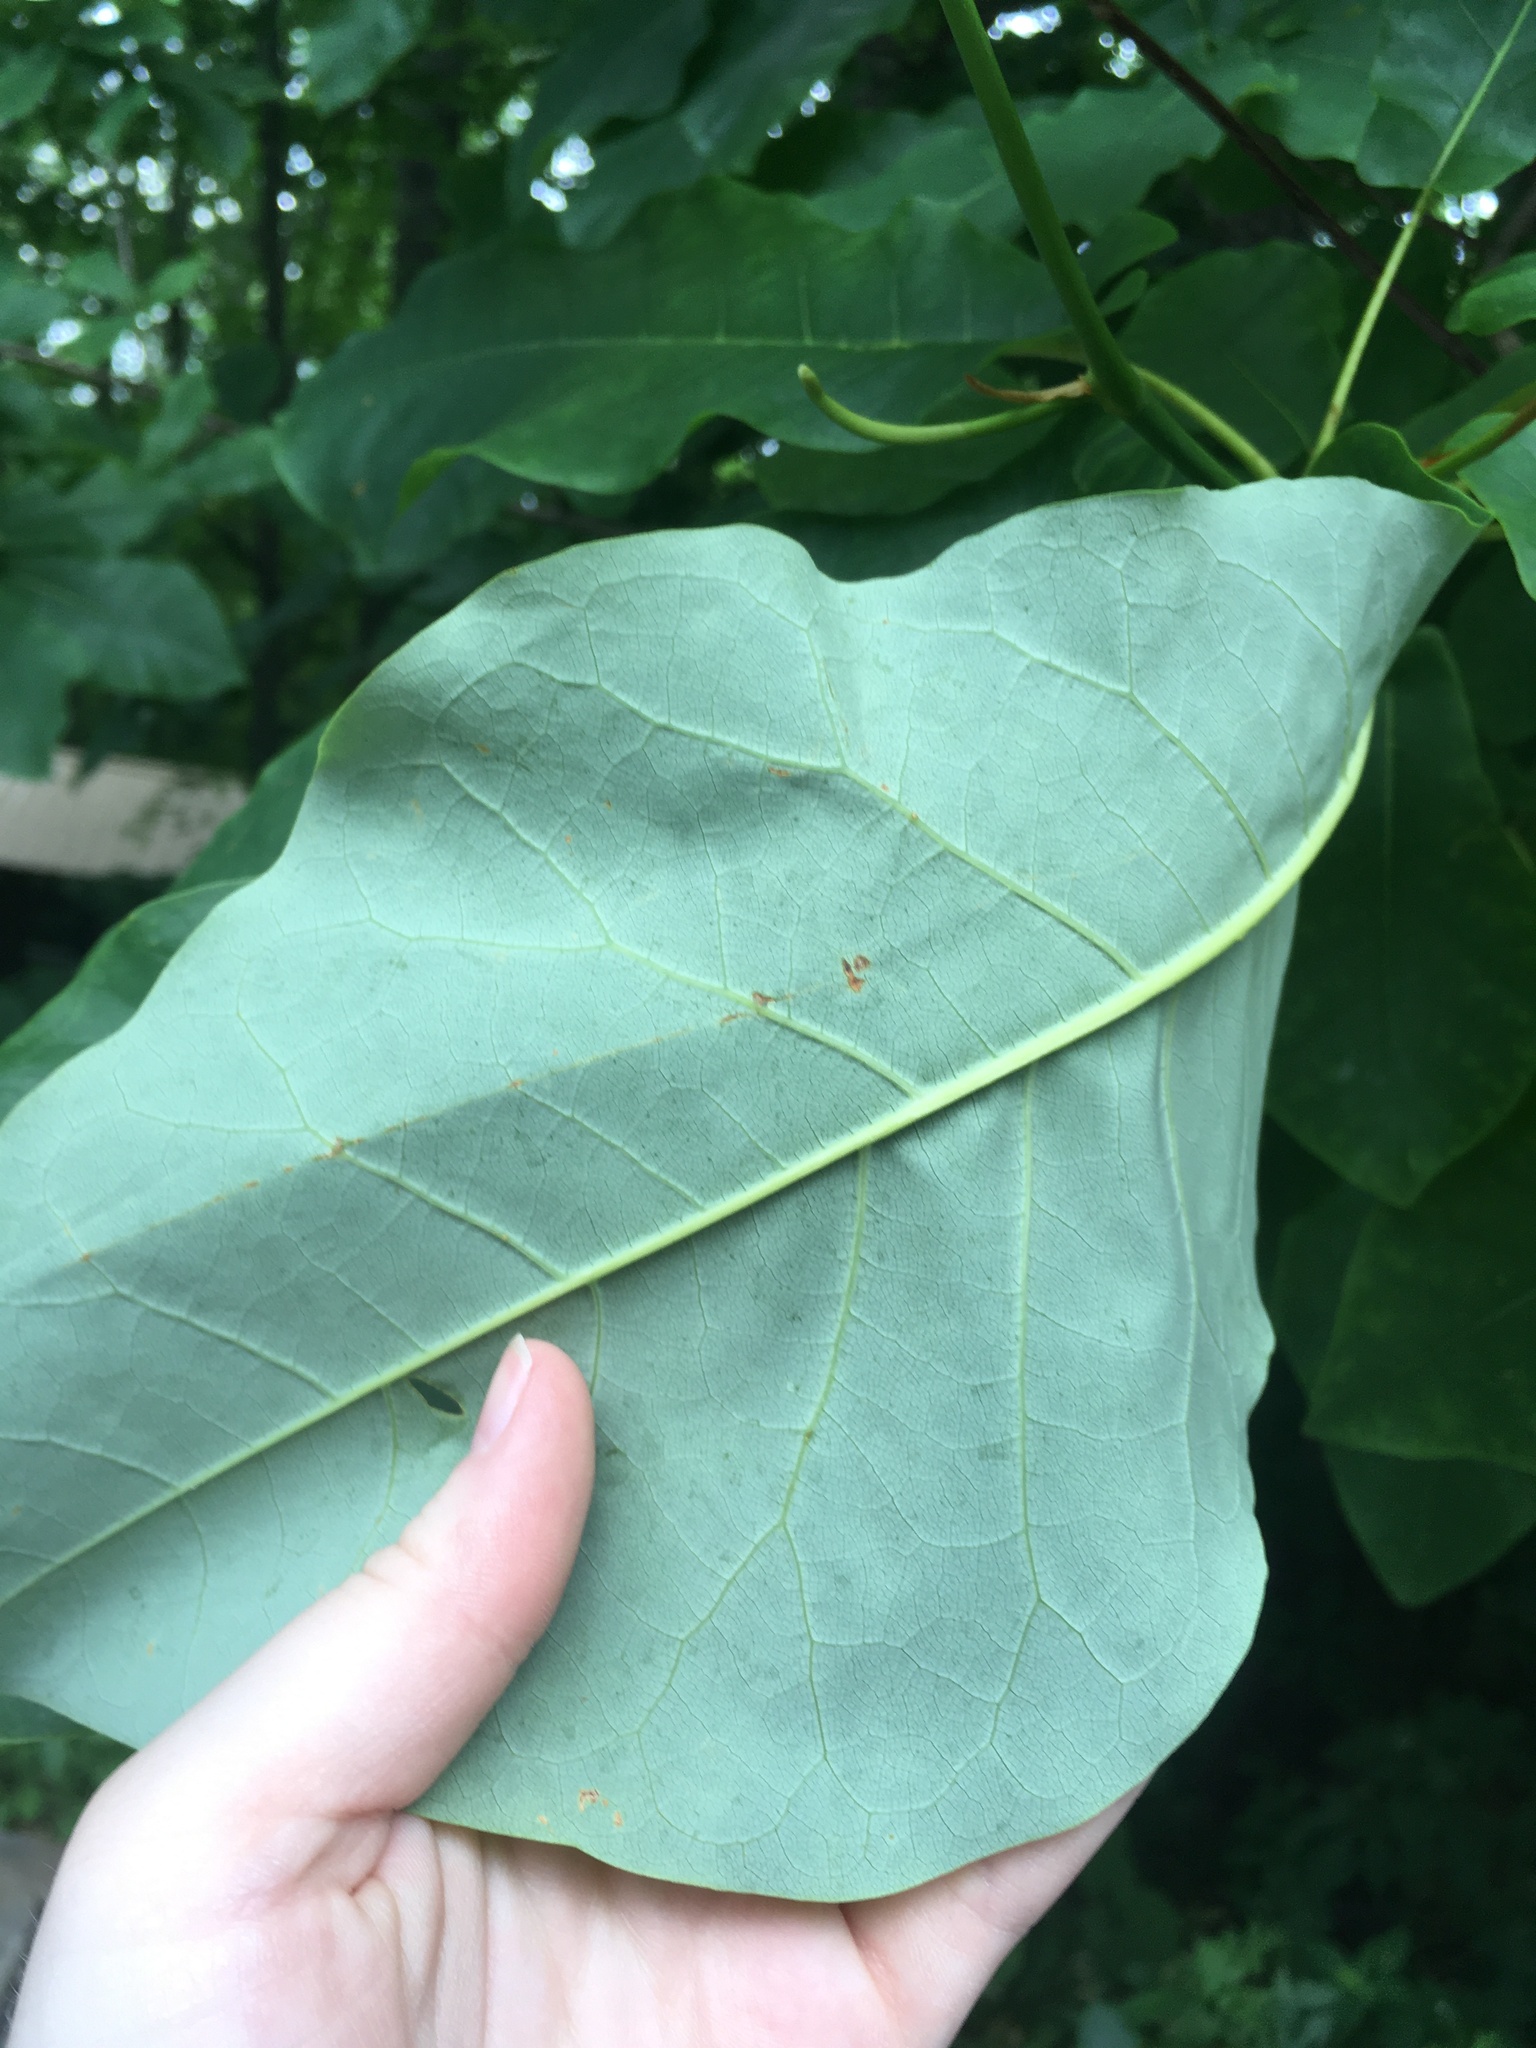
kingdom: Plantae
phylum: Tracheophyta
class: Magnoliopsida
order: Magnoliales
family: Magnoliaceae
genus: Magnolia
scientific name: Magnolia fraseri
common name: Fraser's magnolia
